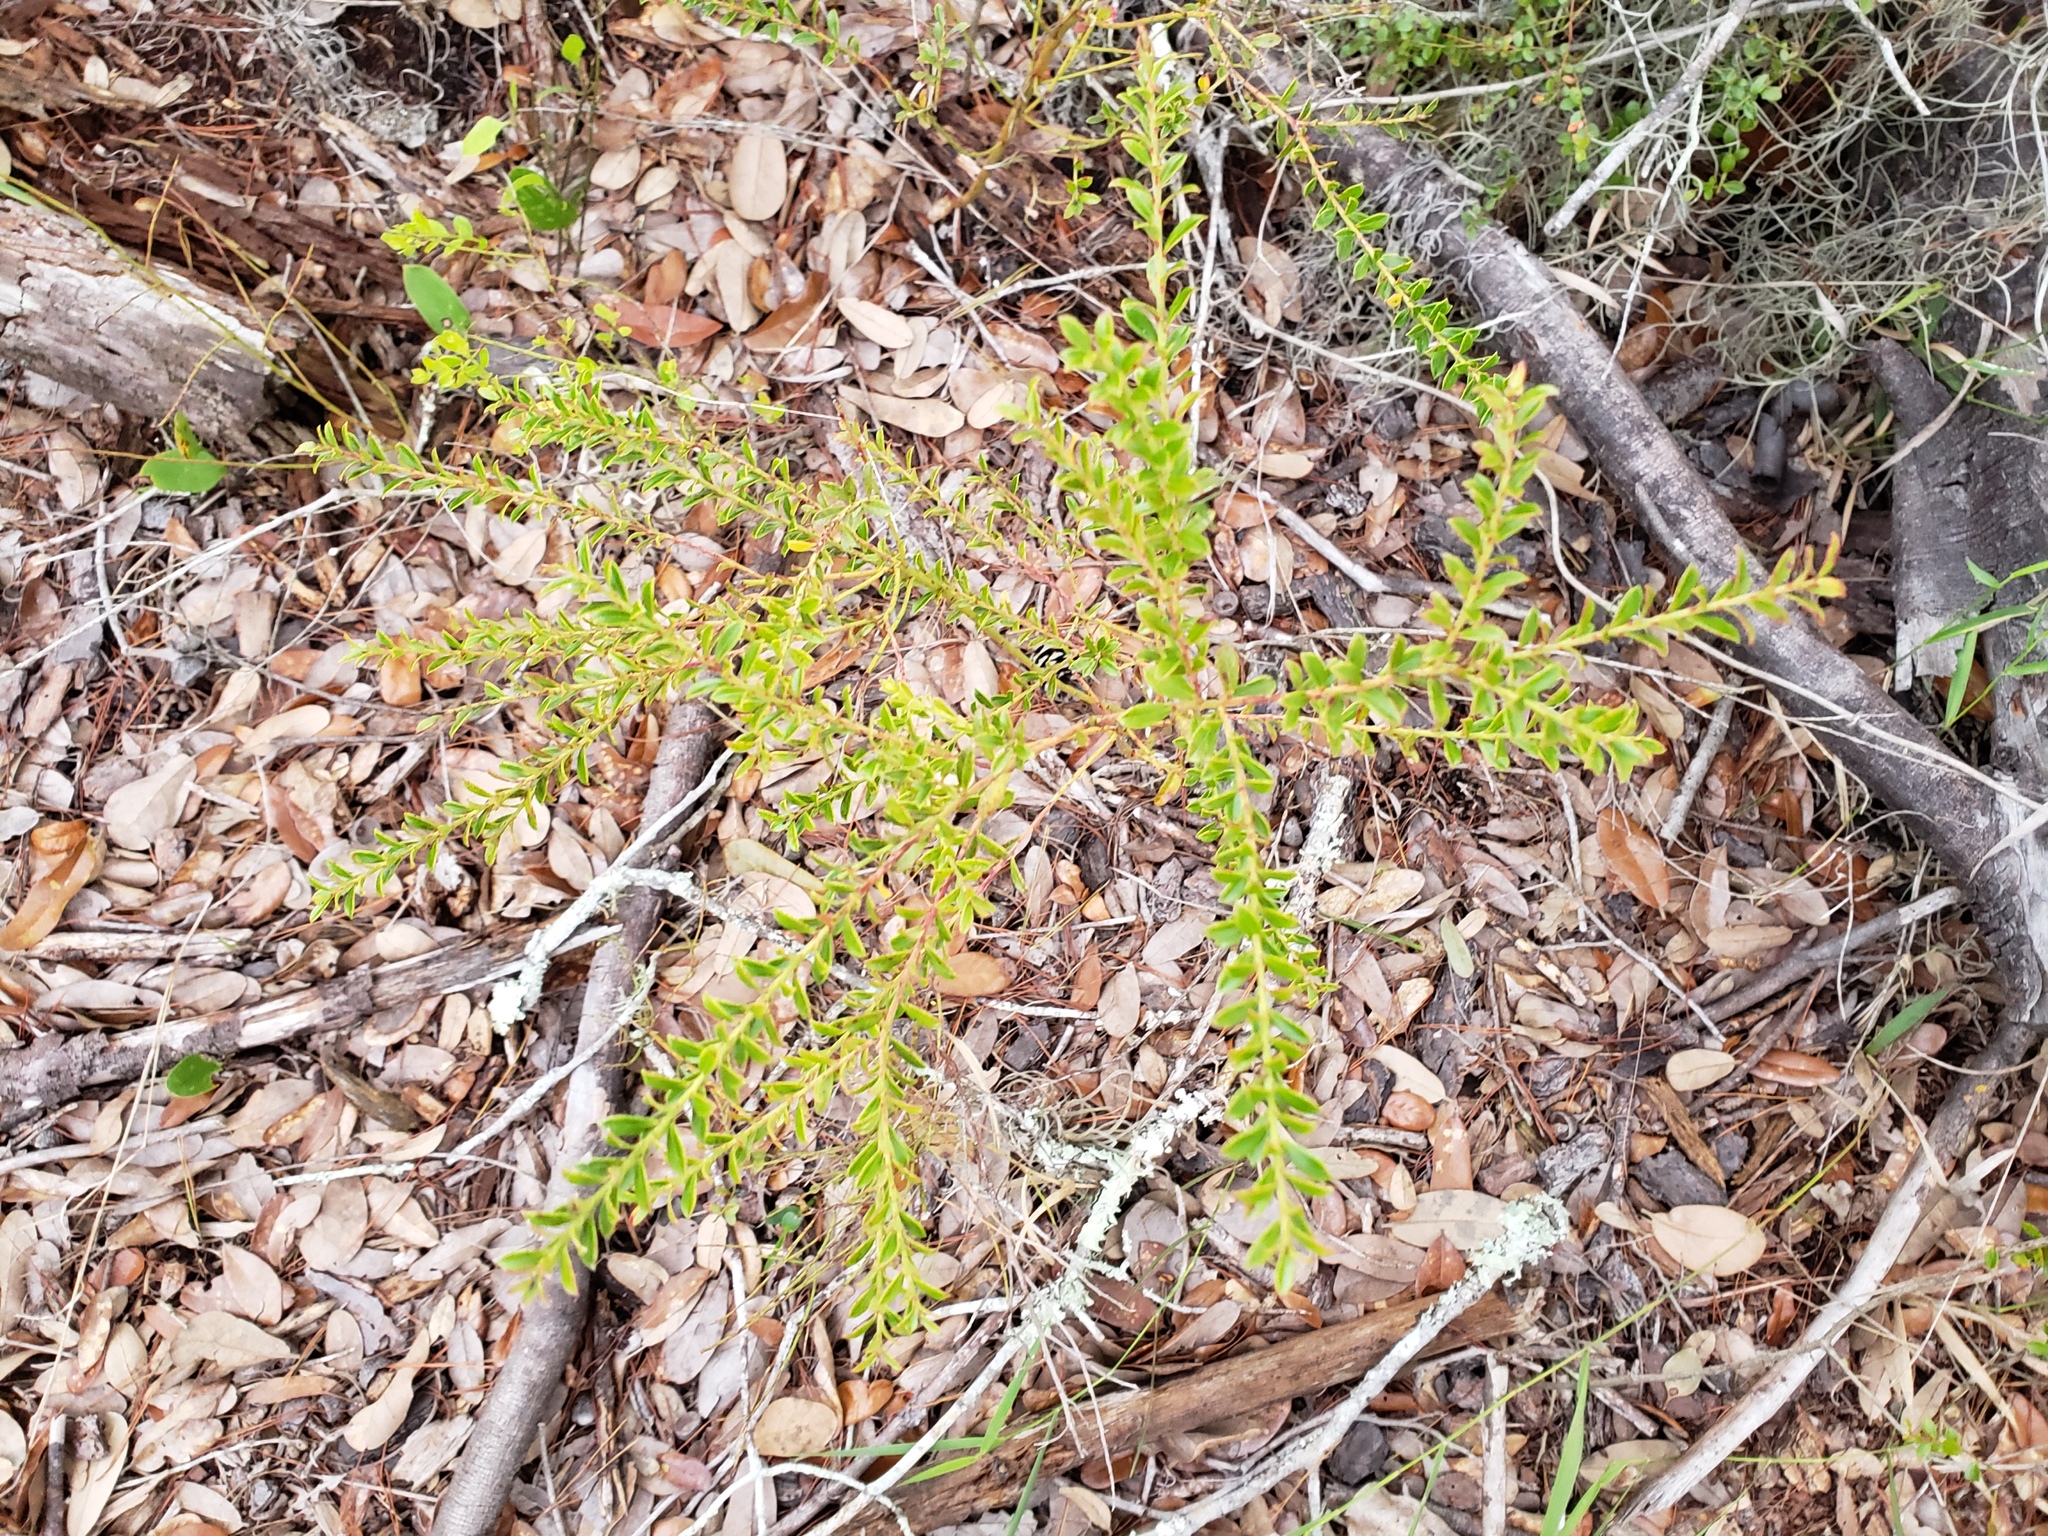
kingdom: Plantae
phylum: Tracheophyta
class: Magnoliopsida
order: Ericales
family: Ericaceae
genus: Vaccinium
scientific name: Vaccinium myrsinites
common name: Evergreen blueberry
